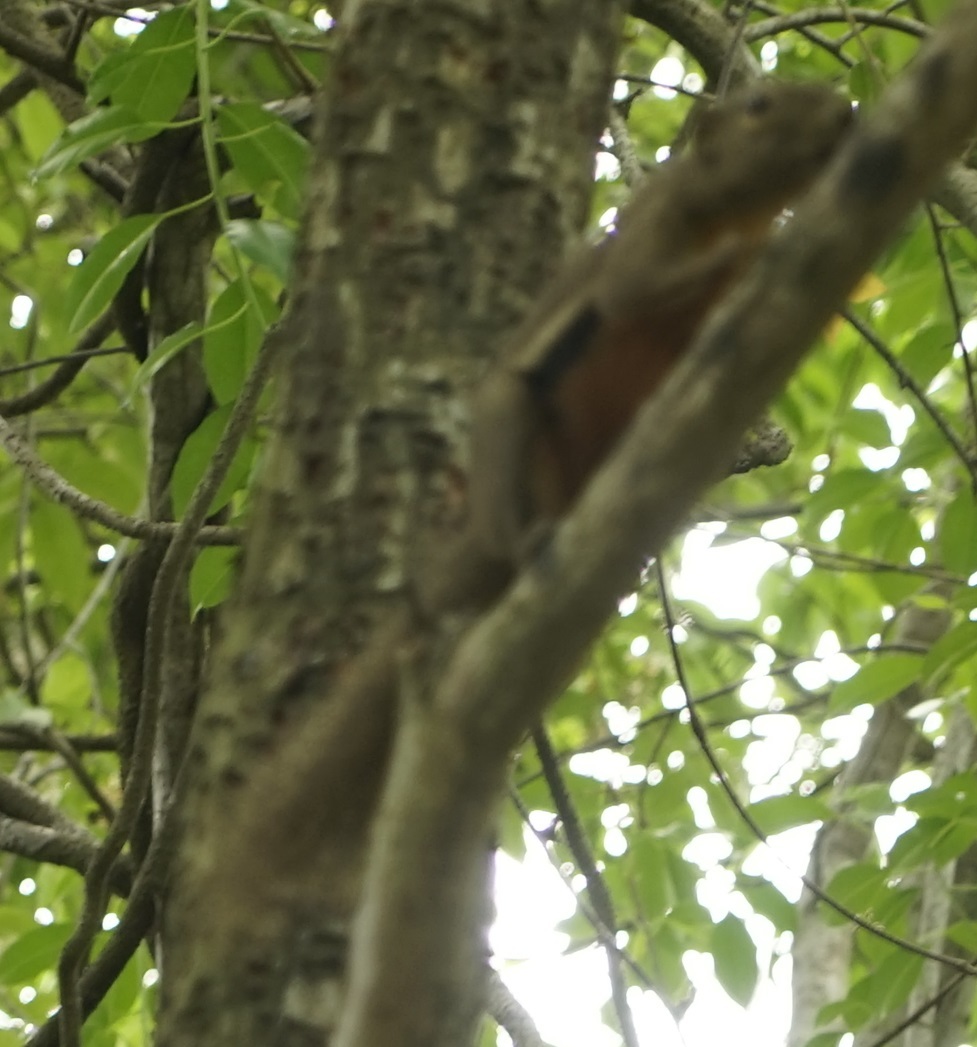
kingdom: Animalia
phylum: Chordata
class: Mammalia
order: Rodentia
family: Sciuridae
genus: Callosciurus
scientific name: Callosciurus notatus
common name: Plantain squirrel
